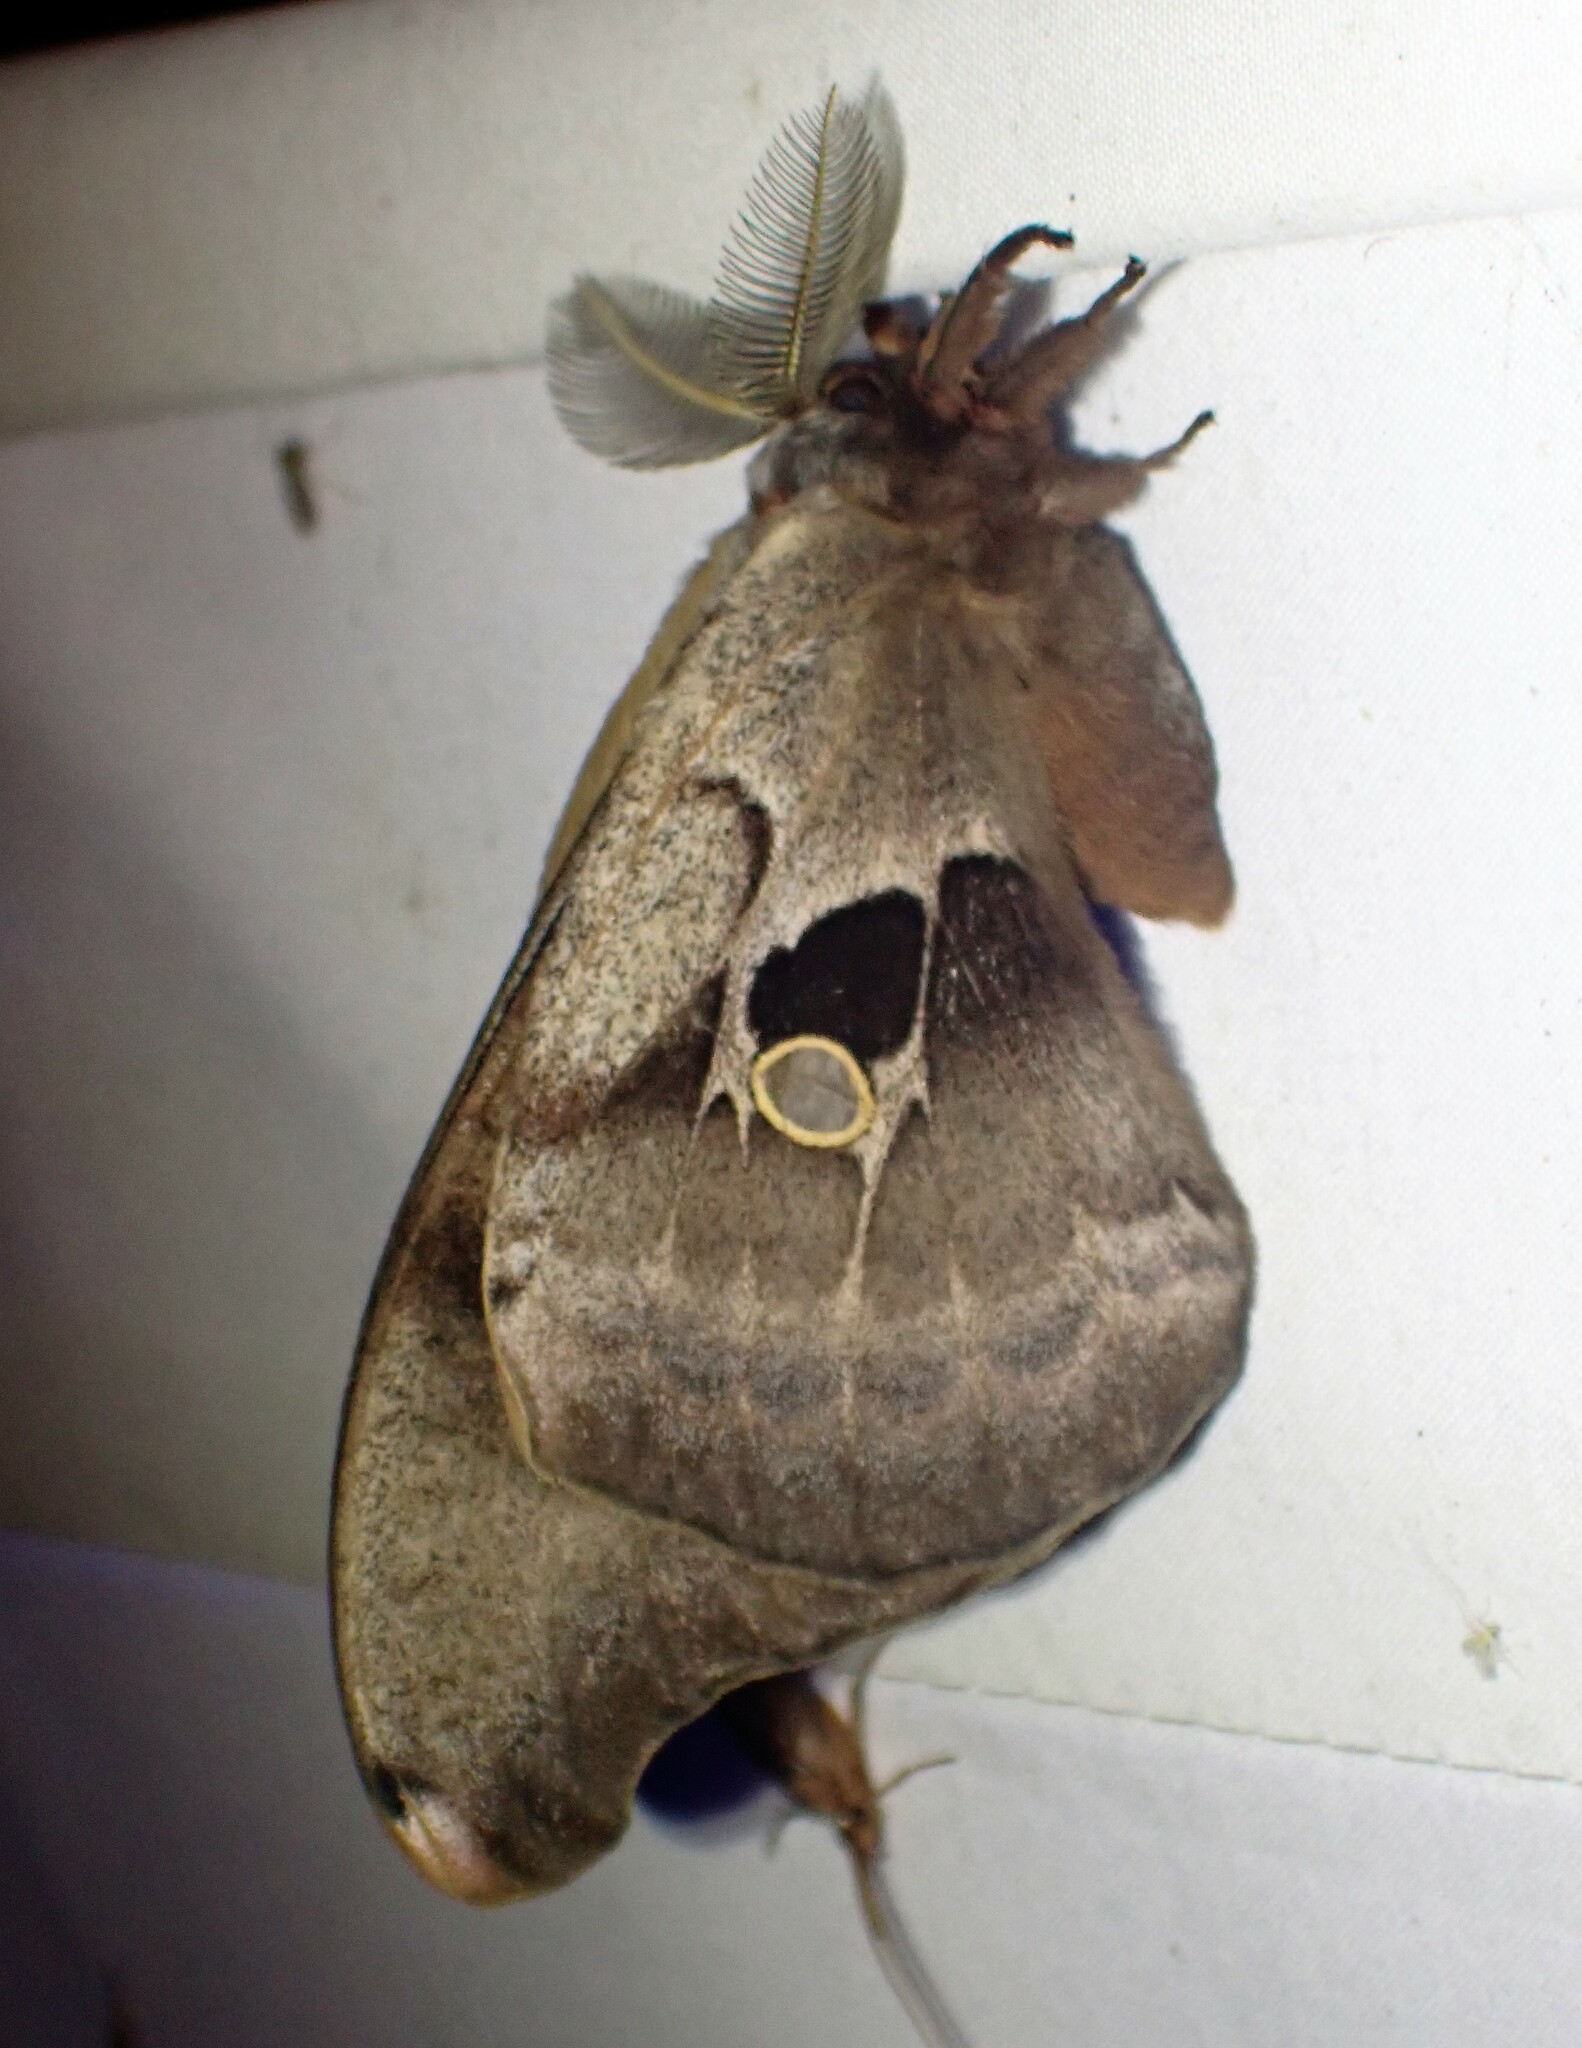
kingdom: Animalia
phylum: Arthropoda
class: Insecta
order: Lepidoptera
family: Saturniidae
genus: Antheraea
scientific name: Antheraea polyphemus
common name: Polyphemus moth
